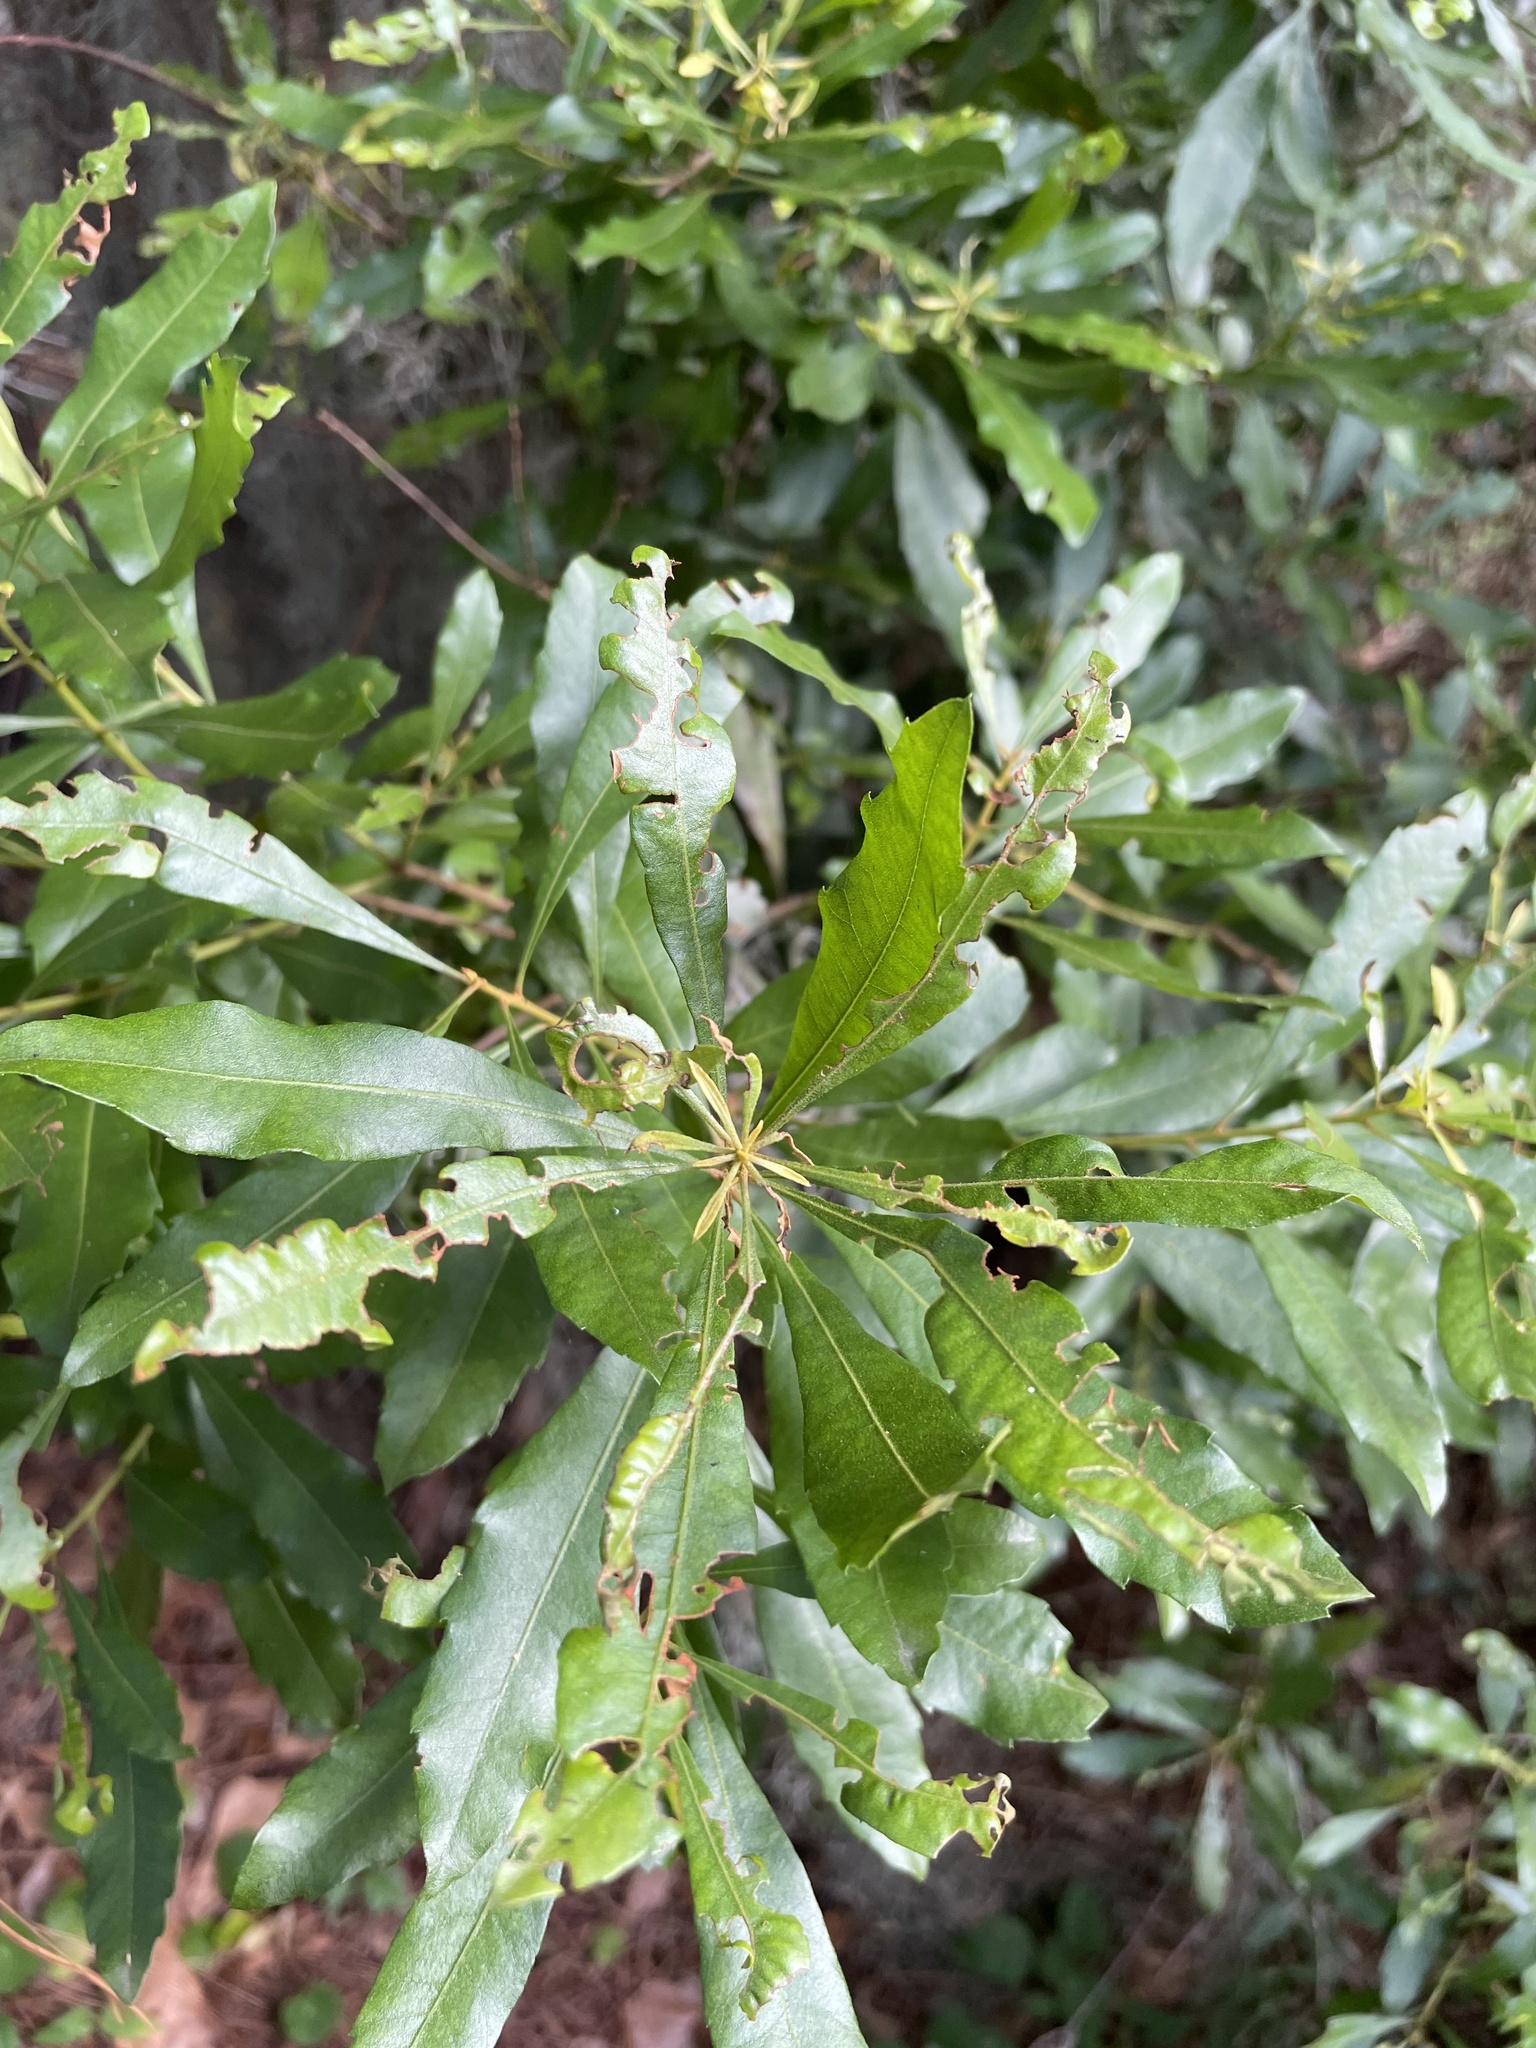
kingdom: Plantae
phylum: Tracheophyta
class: Magnoliopsida
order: Fagales
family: Myricaceae
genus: Morella
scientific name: Morella cerifera
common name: Wax myrtle
